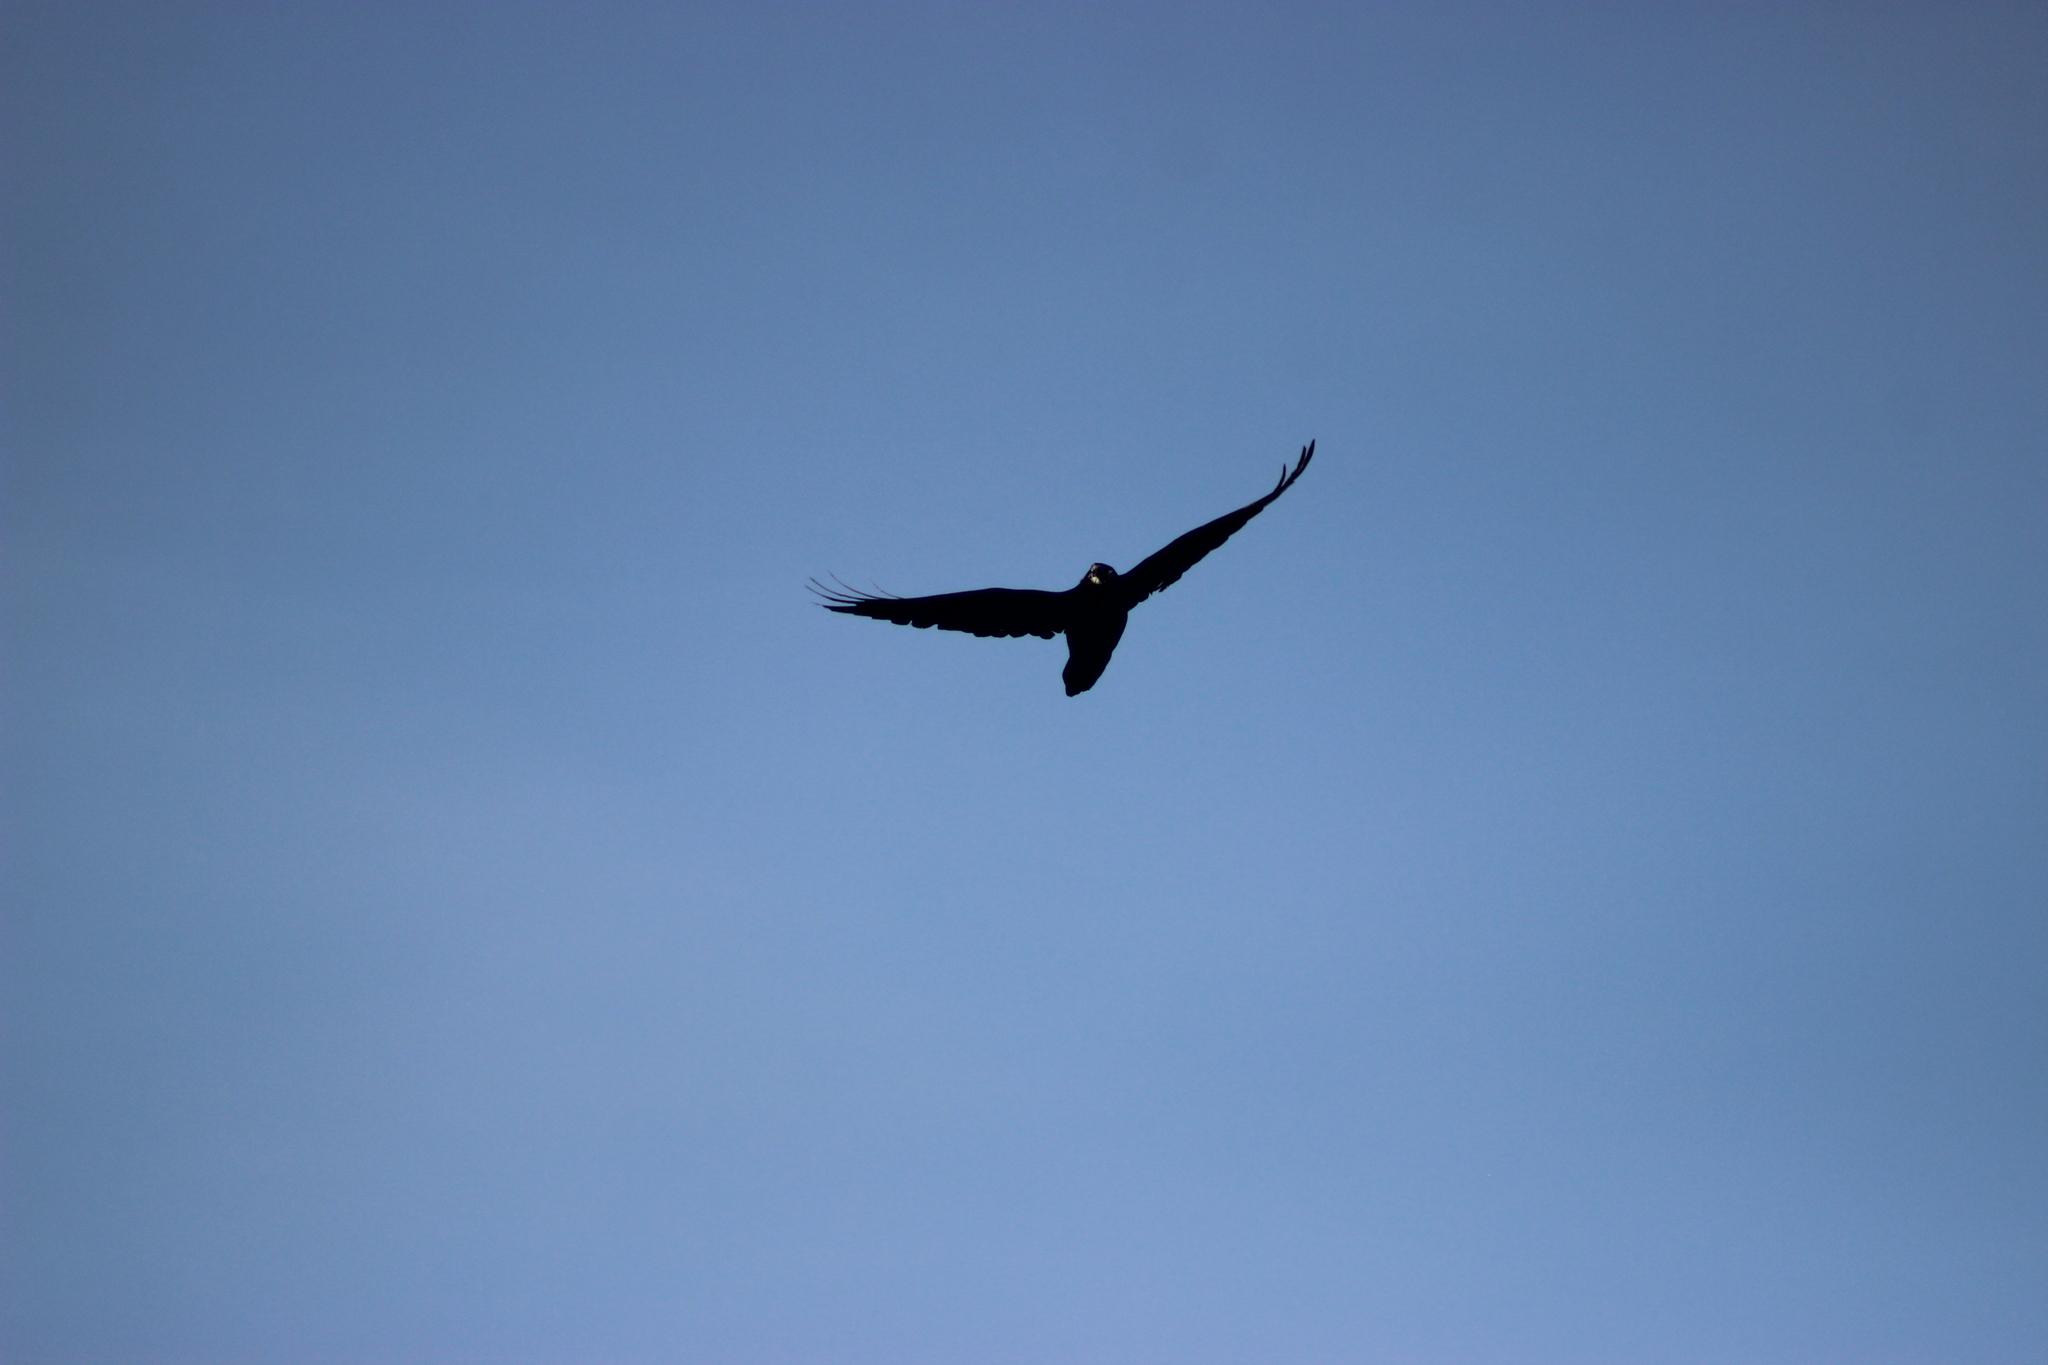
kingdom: Animalia
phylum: Chordata
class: Aves
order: Passeriformes
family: Corvidae
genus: Corvus
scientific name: Corvus corax
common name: Common raven
